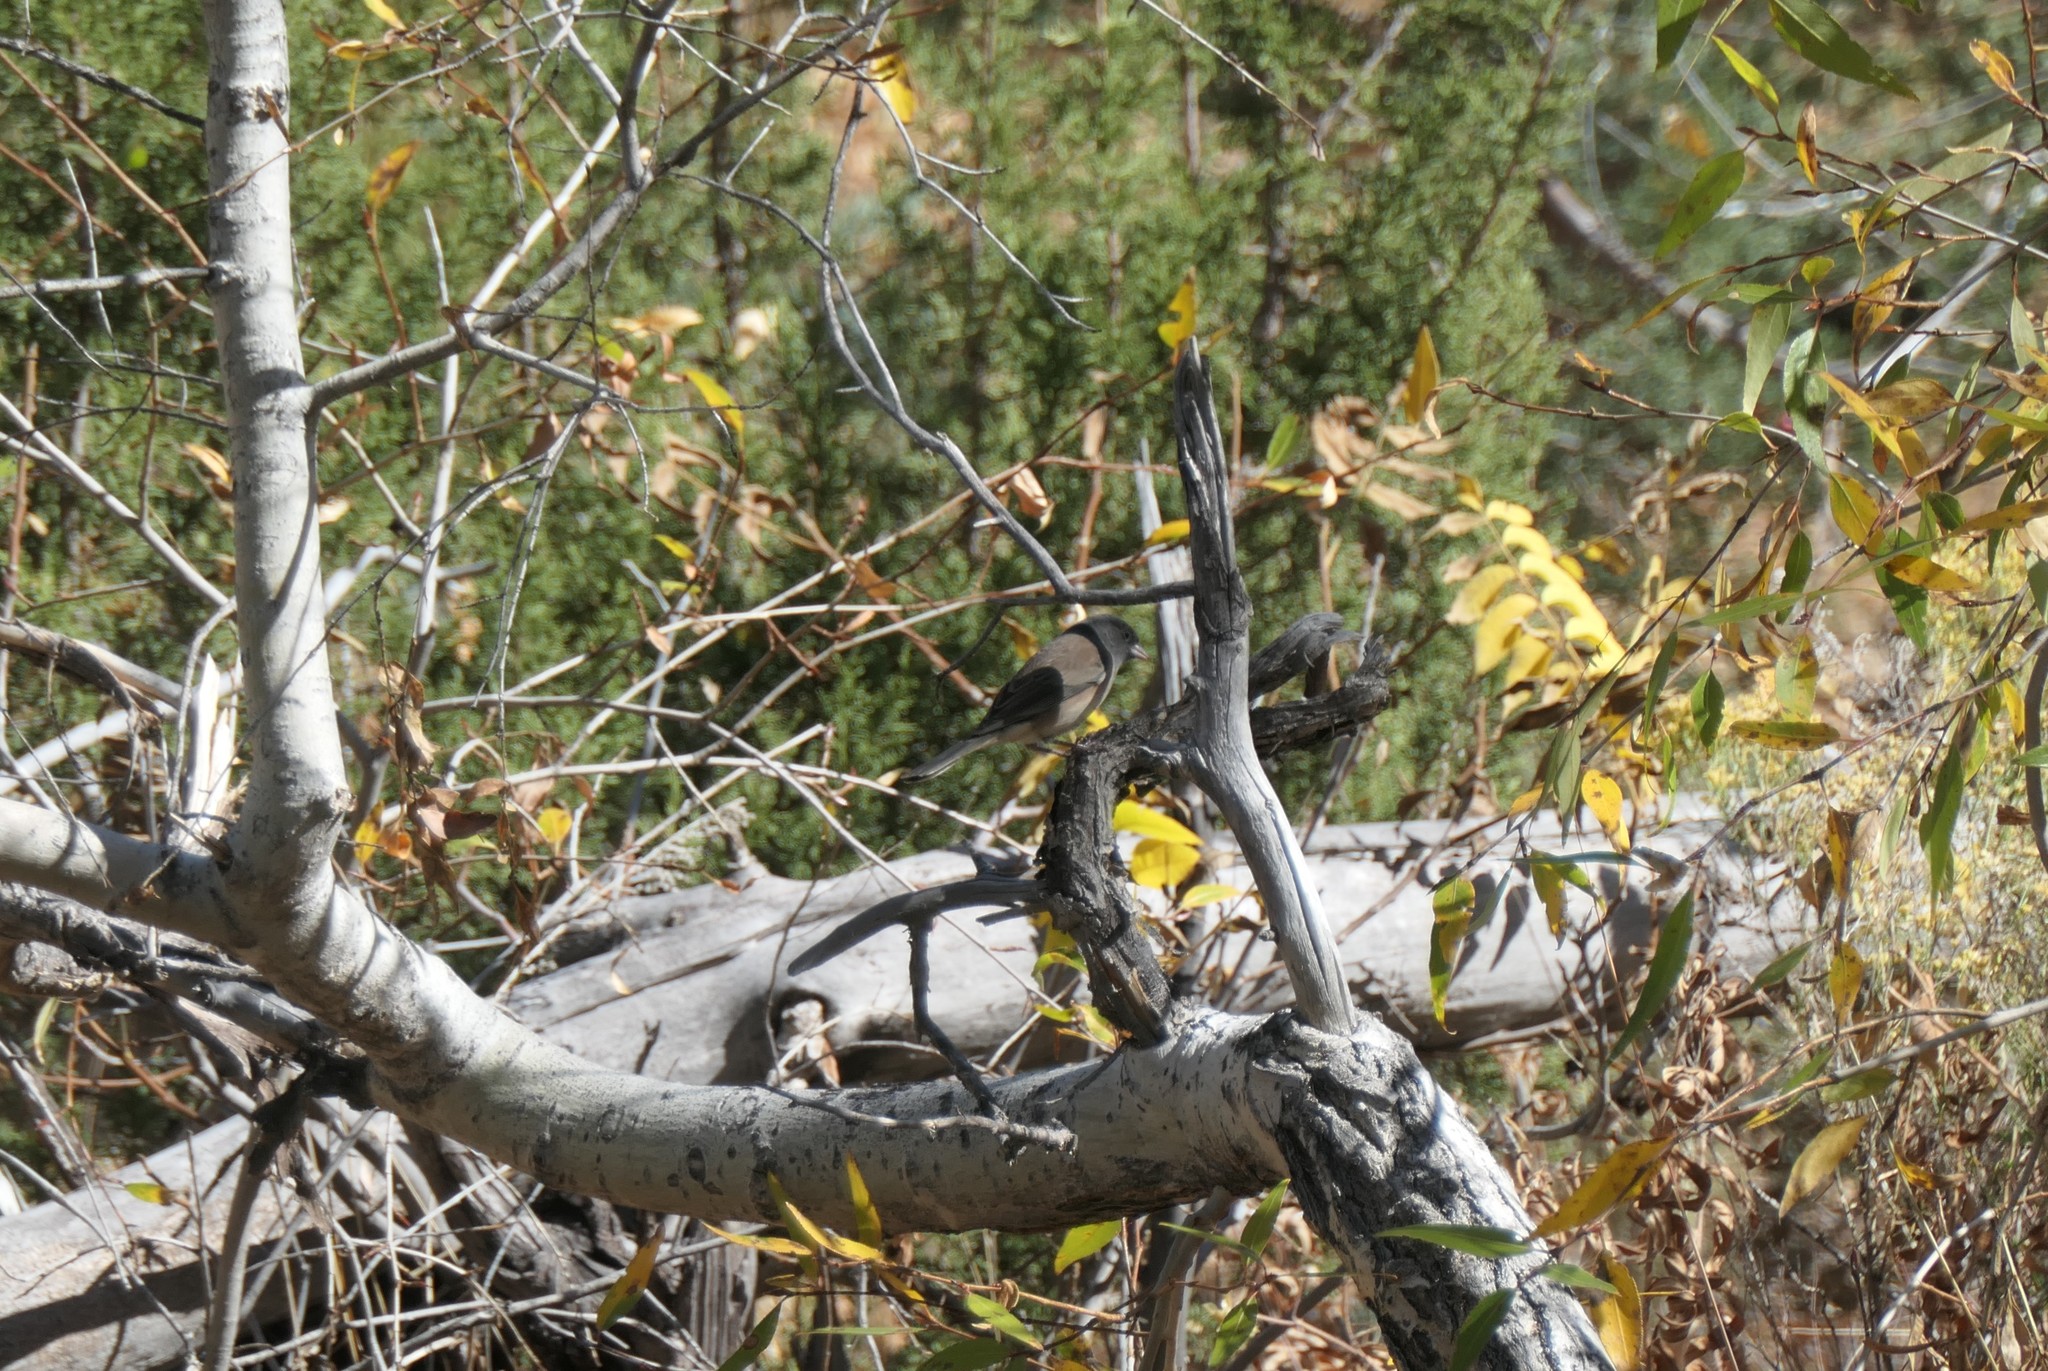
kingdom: Animalia
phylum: Chordata
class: Aves
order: Passeriformes
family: Passerellidae
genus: Junco
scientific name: Junco hyemalis
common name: Dark-eyed junco
